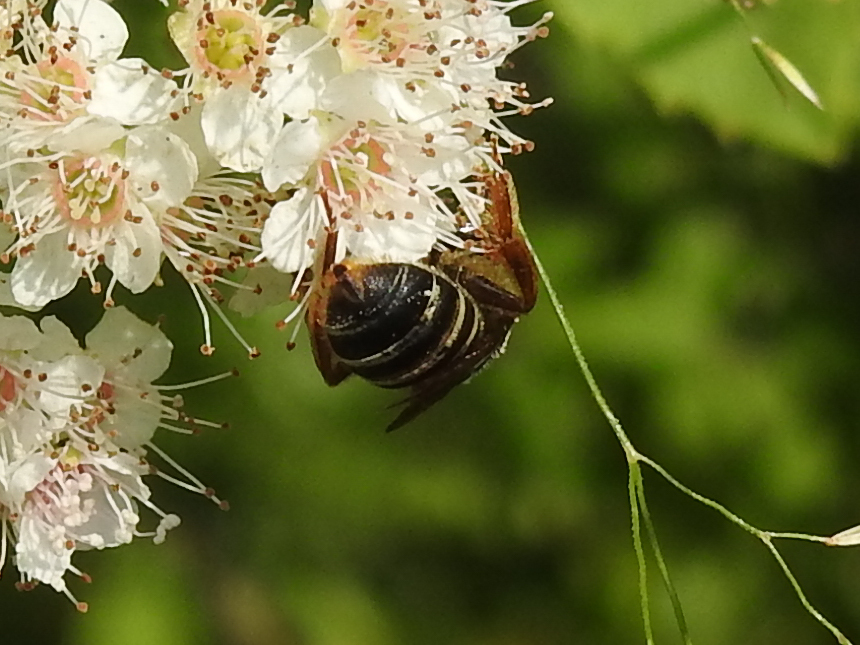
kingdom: Animalia
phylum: Arthropoda
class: Insecta
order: Hymenoptera
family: Halictidae
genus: Halictus
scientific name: Halictus parallelus
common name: Parallel-striped sweat bee
